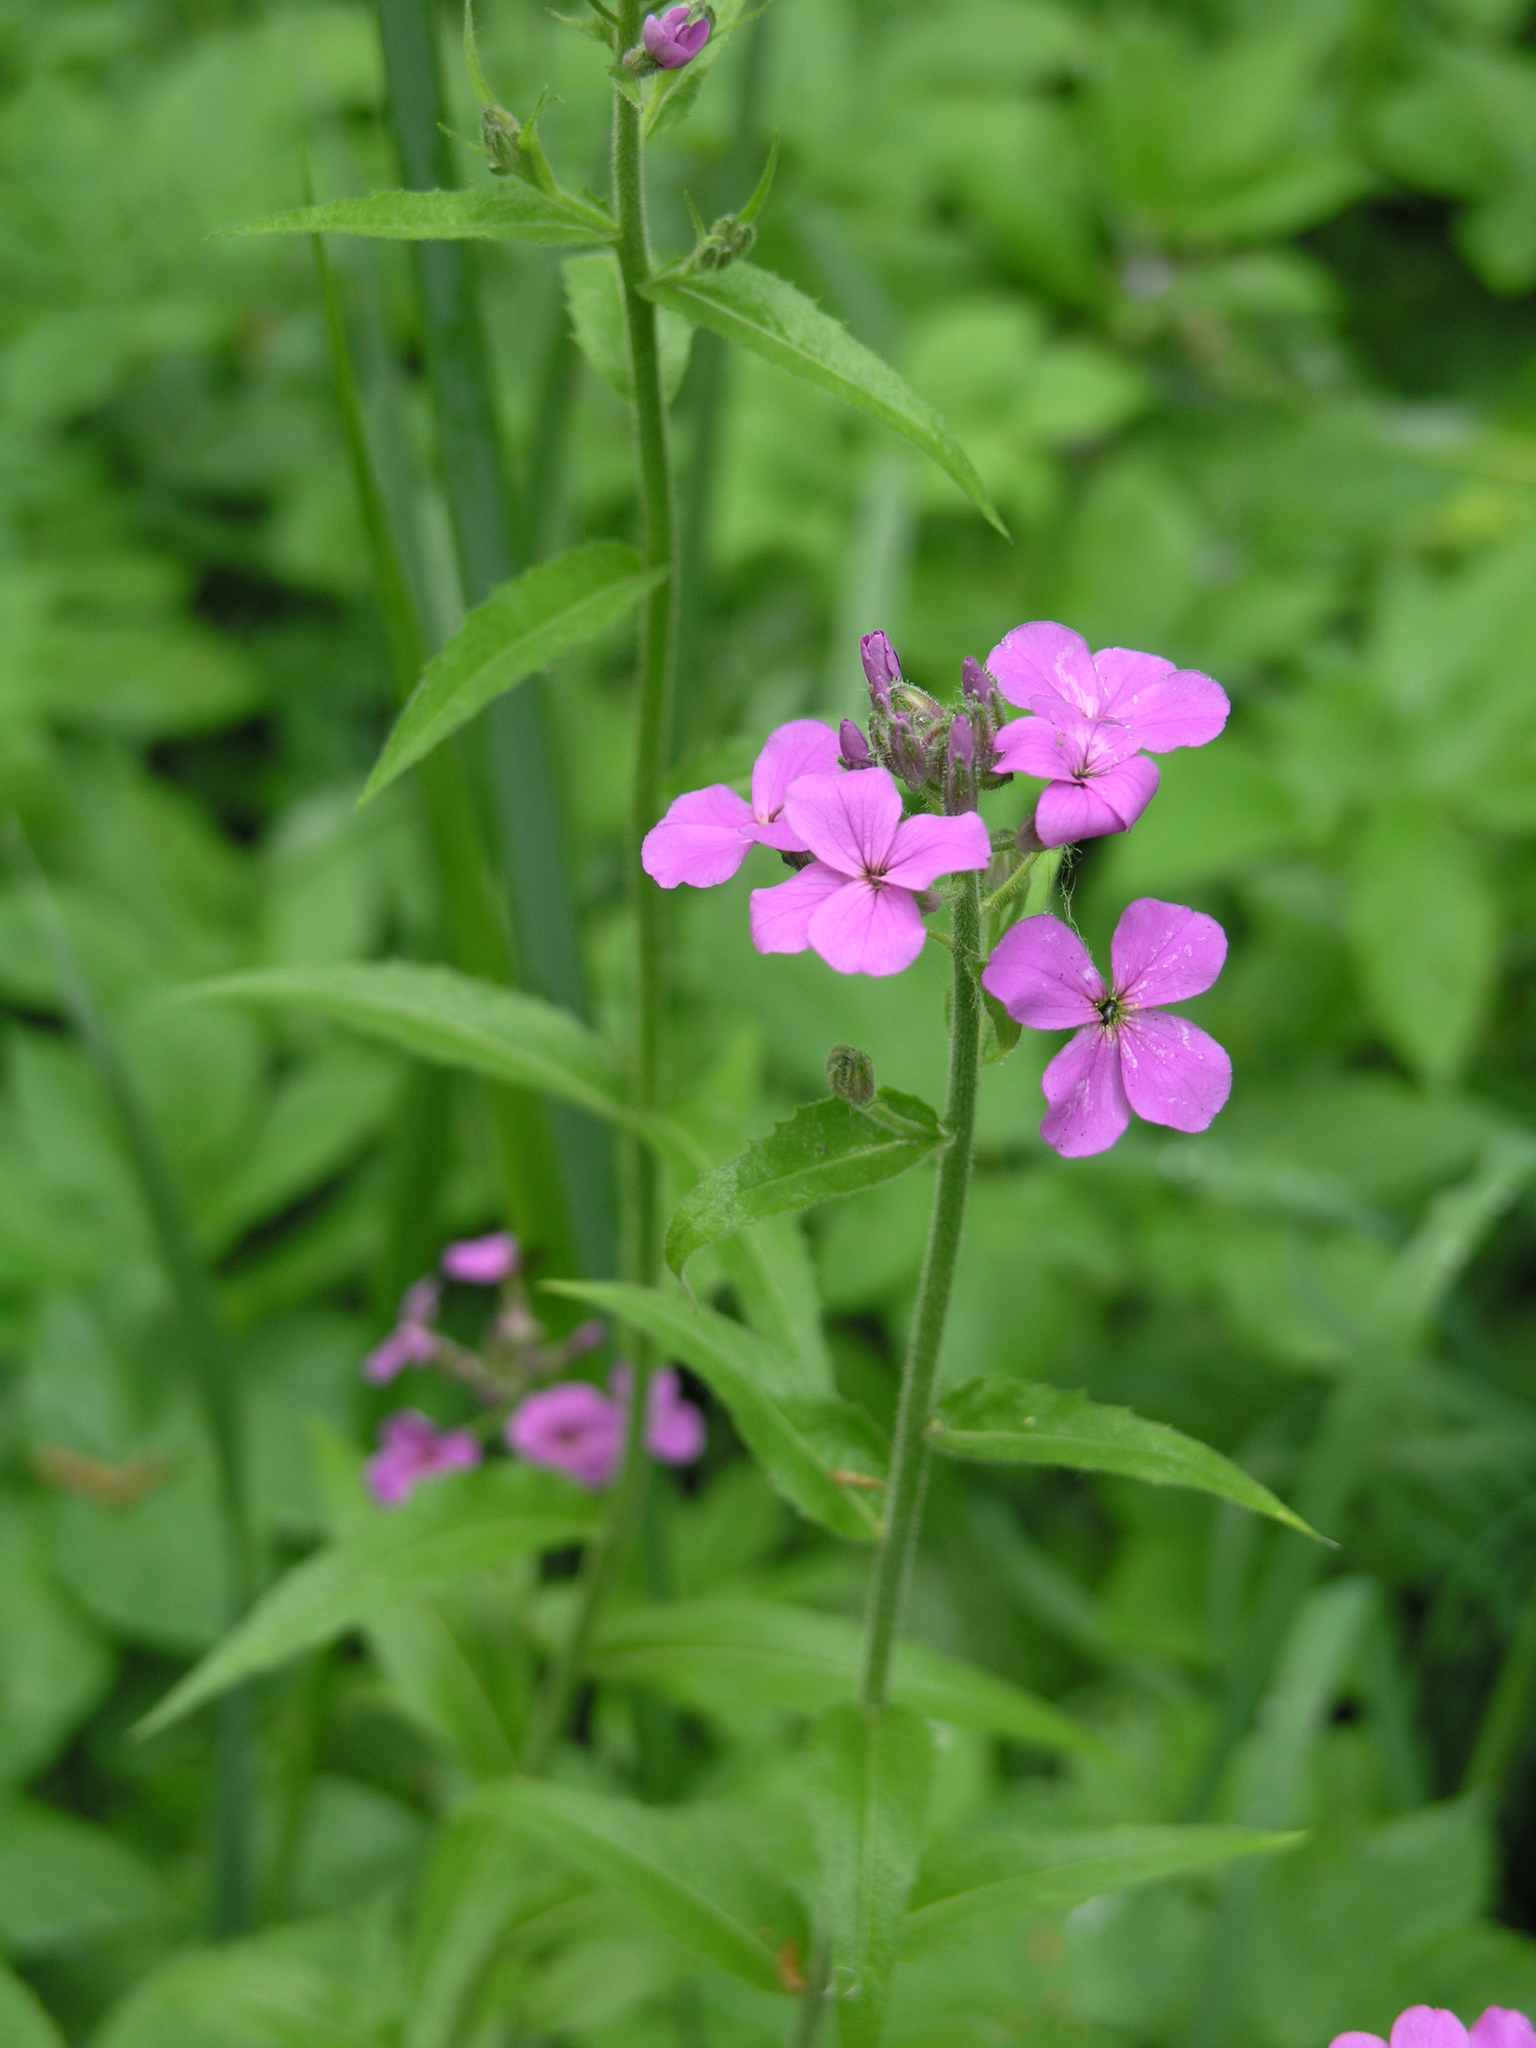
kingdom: Plantae
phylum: Tracheophyta
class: Magnoliopsida
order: Brassicales
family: Brassicaceae
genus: Hesperis
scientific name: Hesperis sibirica
